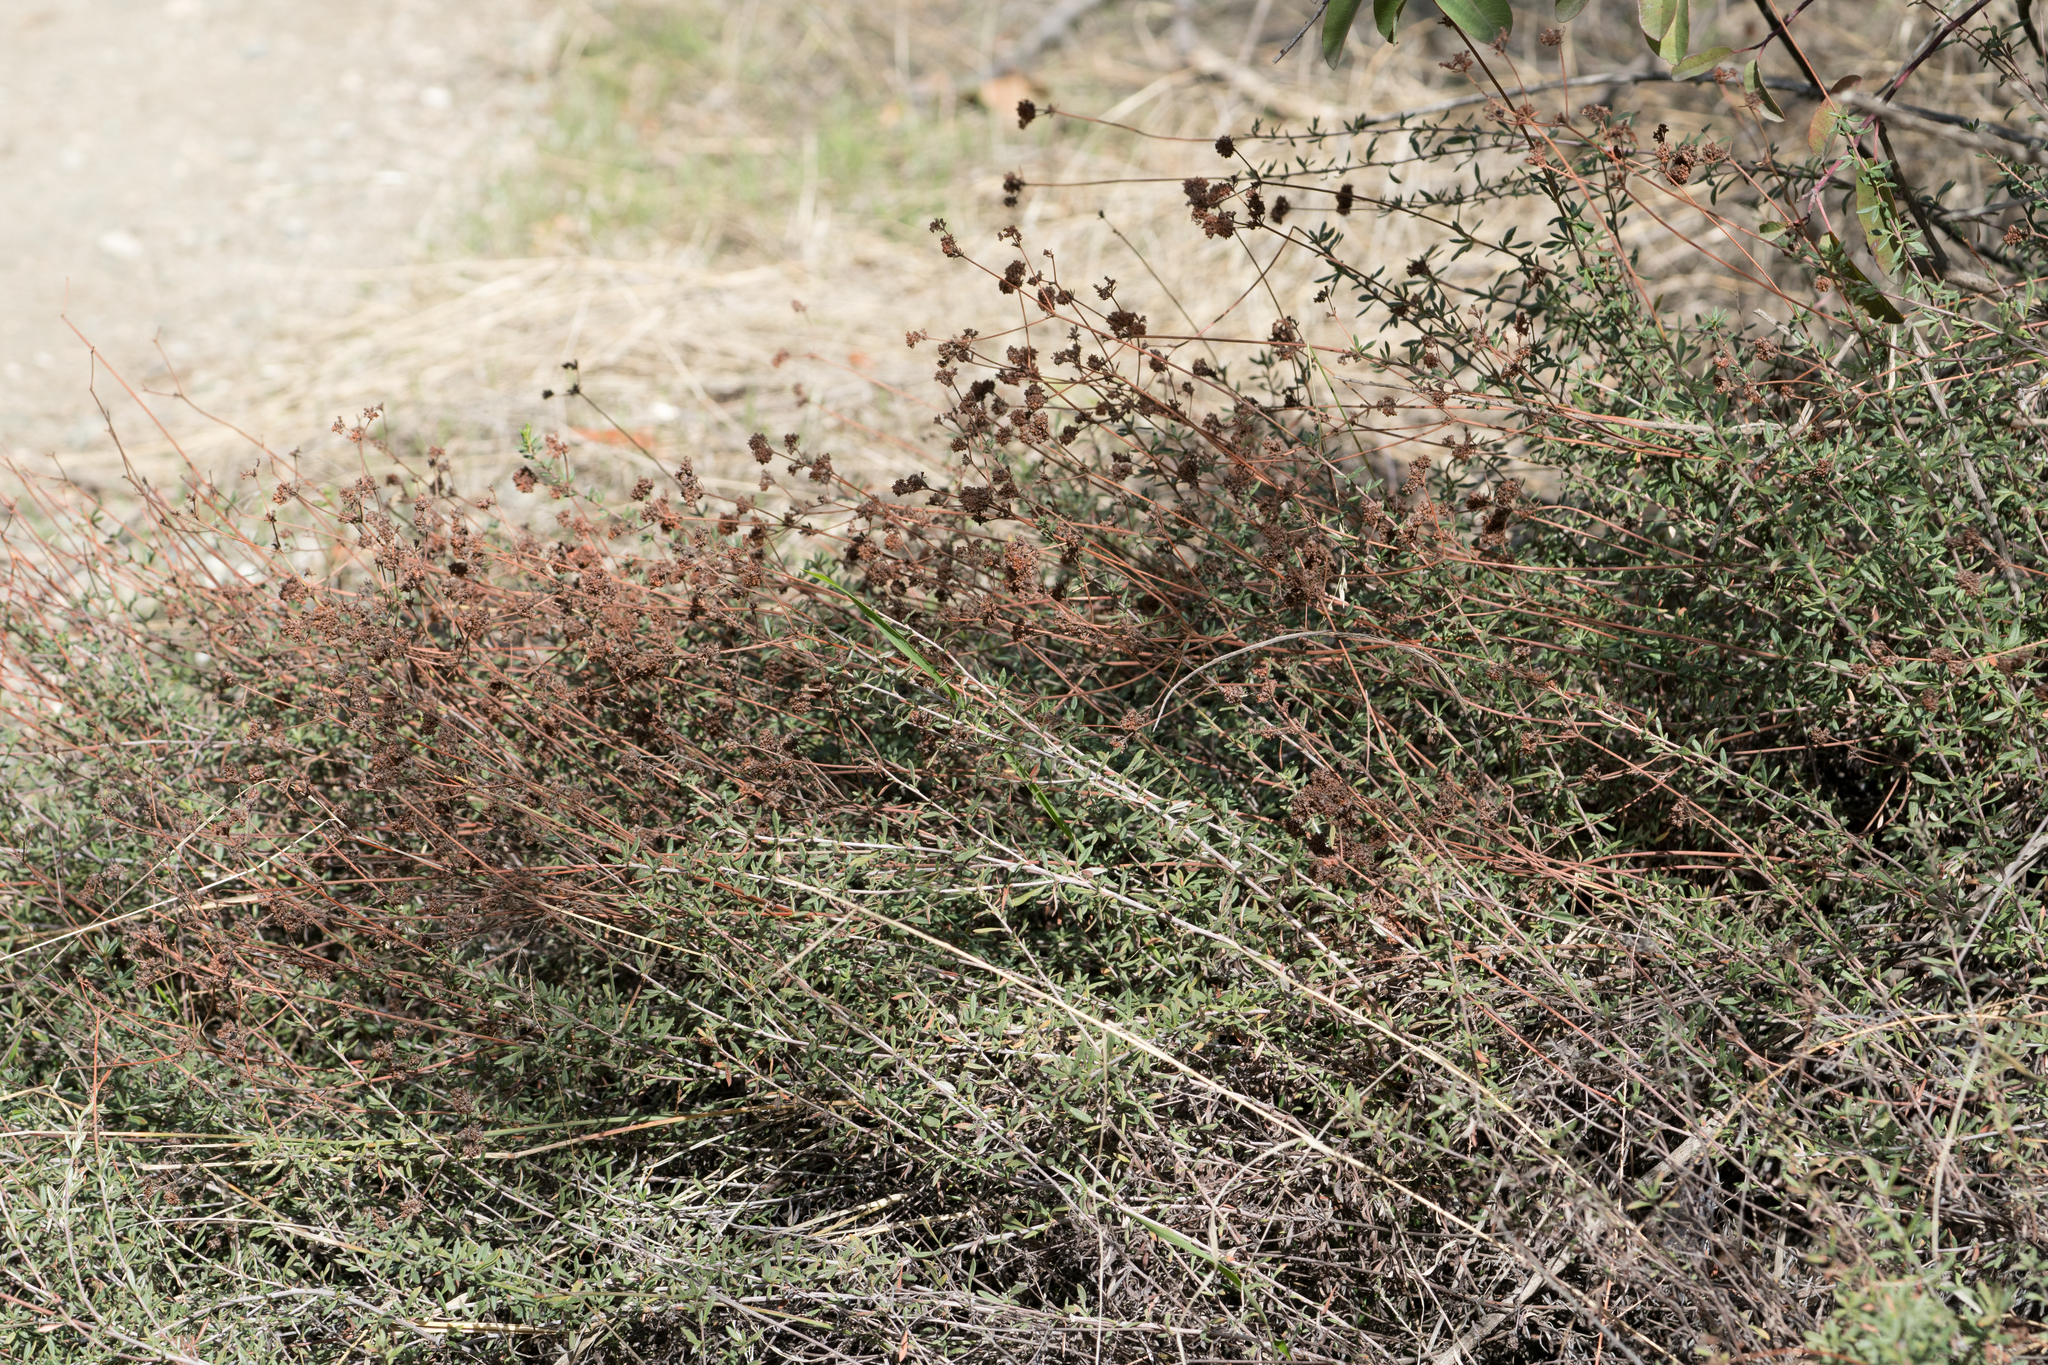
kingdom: Plantae
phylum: Tracheophyta
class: Magnoliopsida
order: Caryophyllales
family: Polygonaceae
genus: Eriogonum
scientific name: Eriogonum fasciculatum
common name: California wild buckwheat
